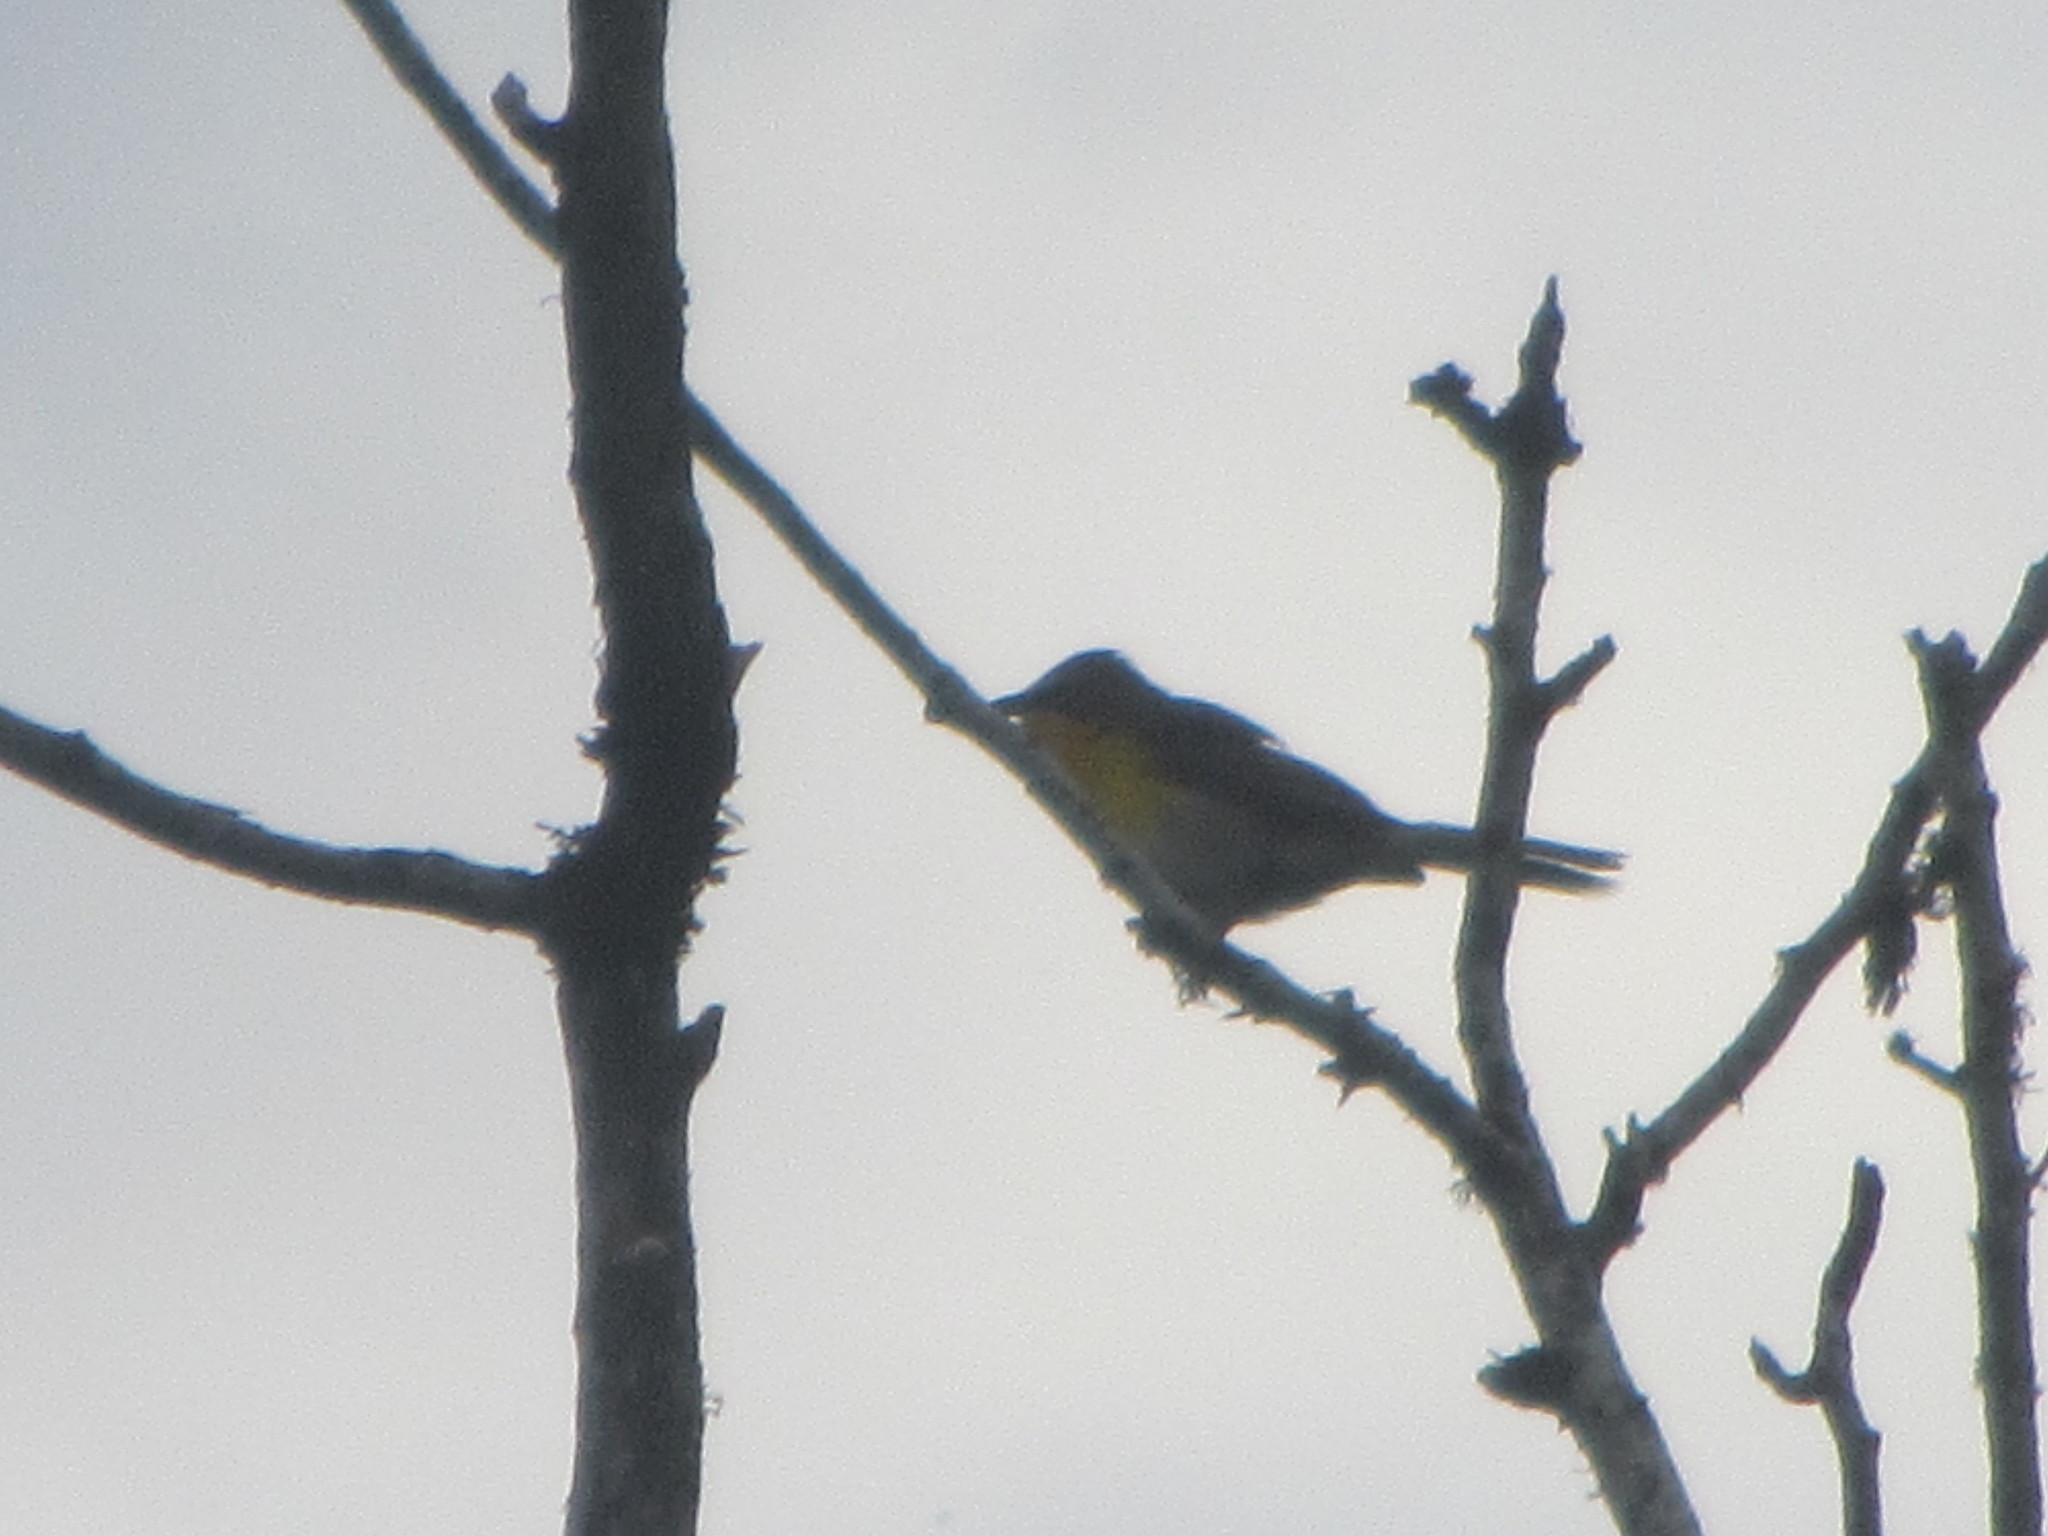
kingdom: Animalia
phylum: Chordata
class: Aves
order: Passeriformes
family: Parulidae
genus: Icteria
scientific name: Icteria virens
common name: Yellow-breasted chat
